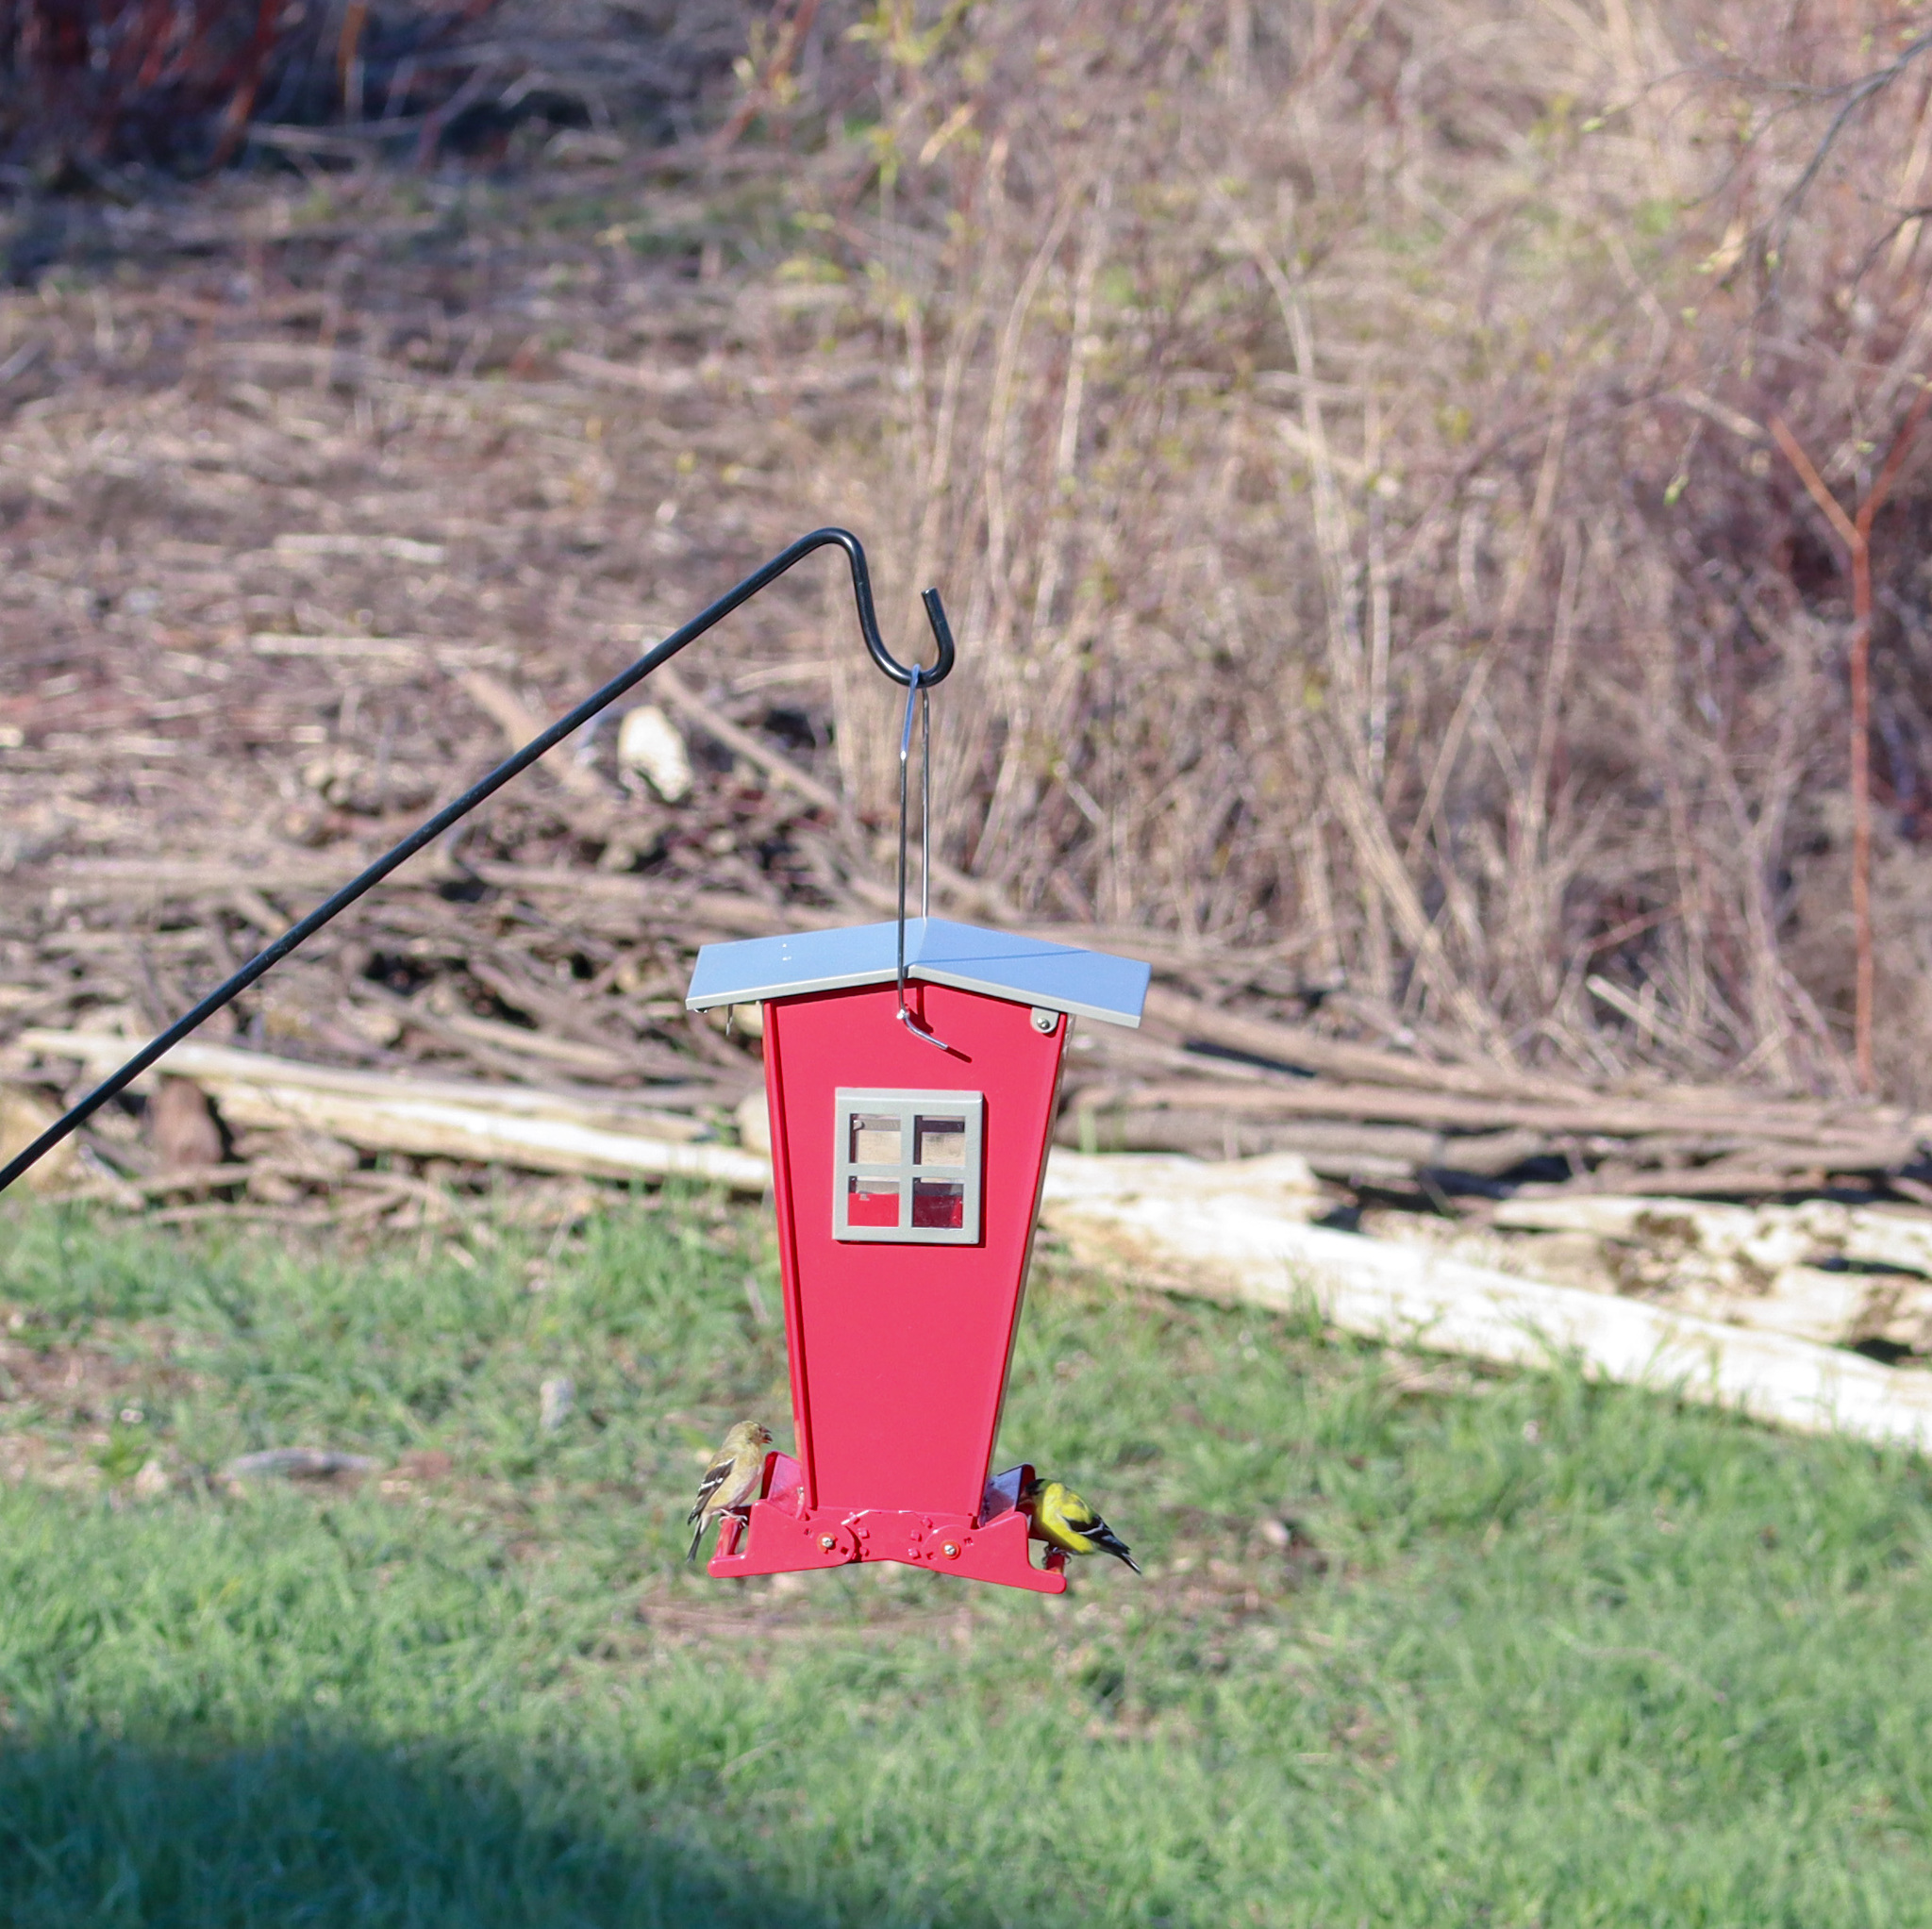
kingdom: Animalia
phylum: Chordata
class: Aves
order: Passeriformes
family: Fringillidae
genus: Spinus
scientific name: Spinus tristis
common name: American goldfinch
